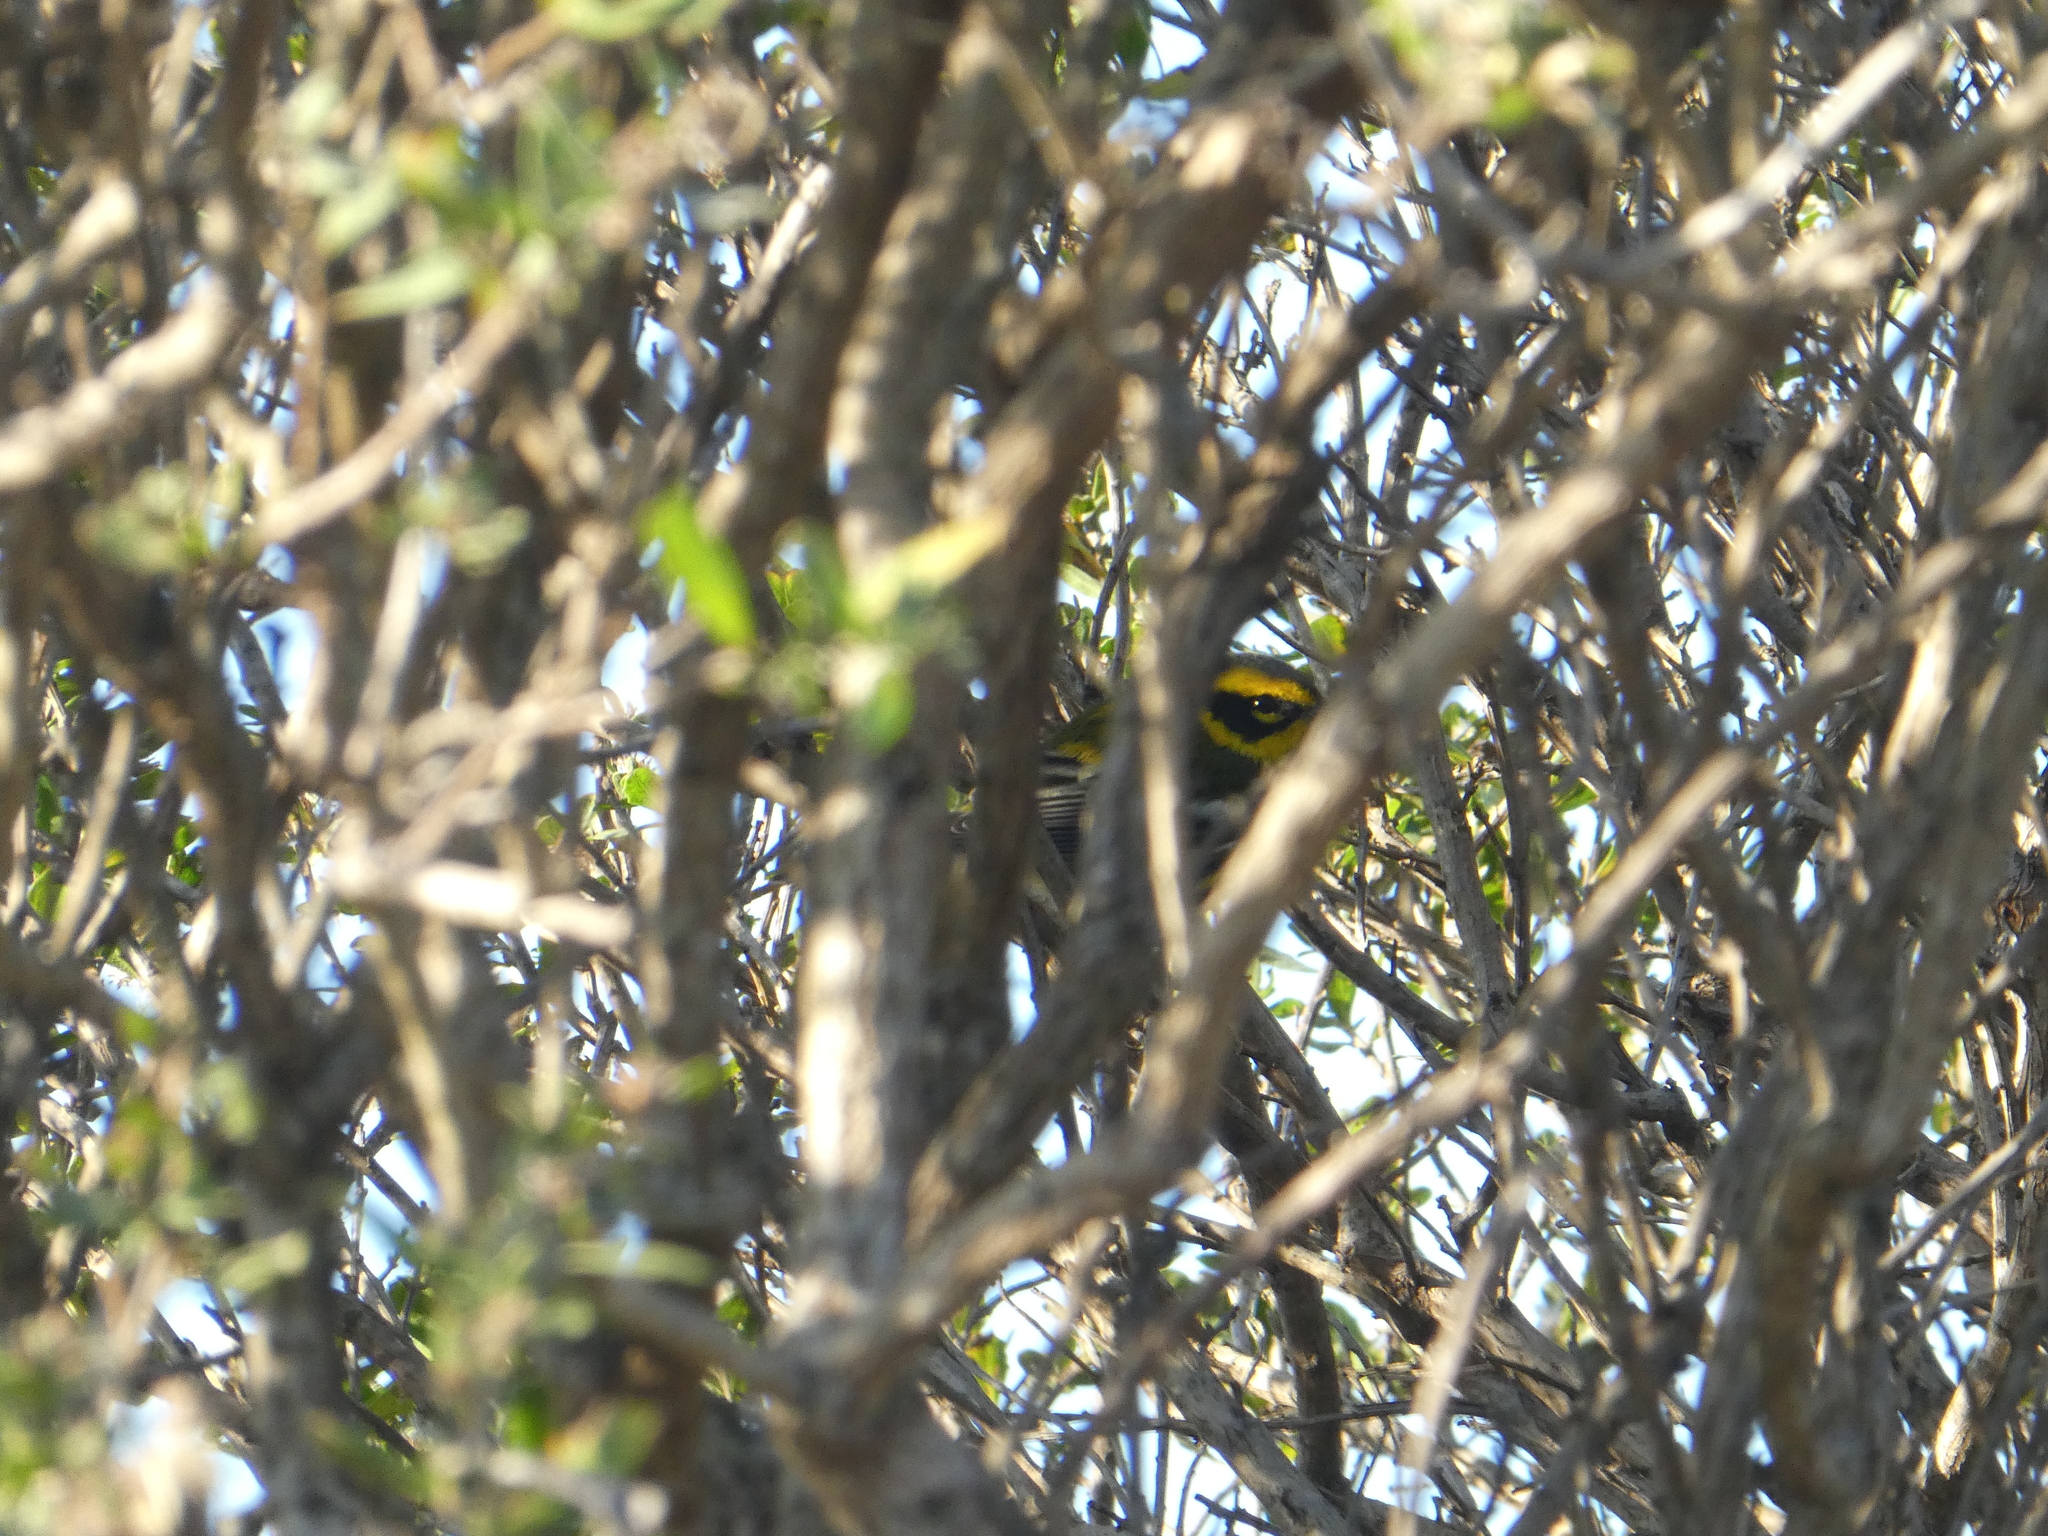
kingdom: Animalia
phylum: Chordata
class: Aves
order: Passeriformes
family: Parulidae
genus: Setophaga
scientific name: Setophaga townsendi
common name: Townsend's warbler
